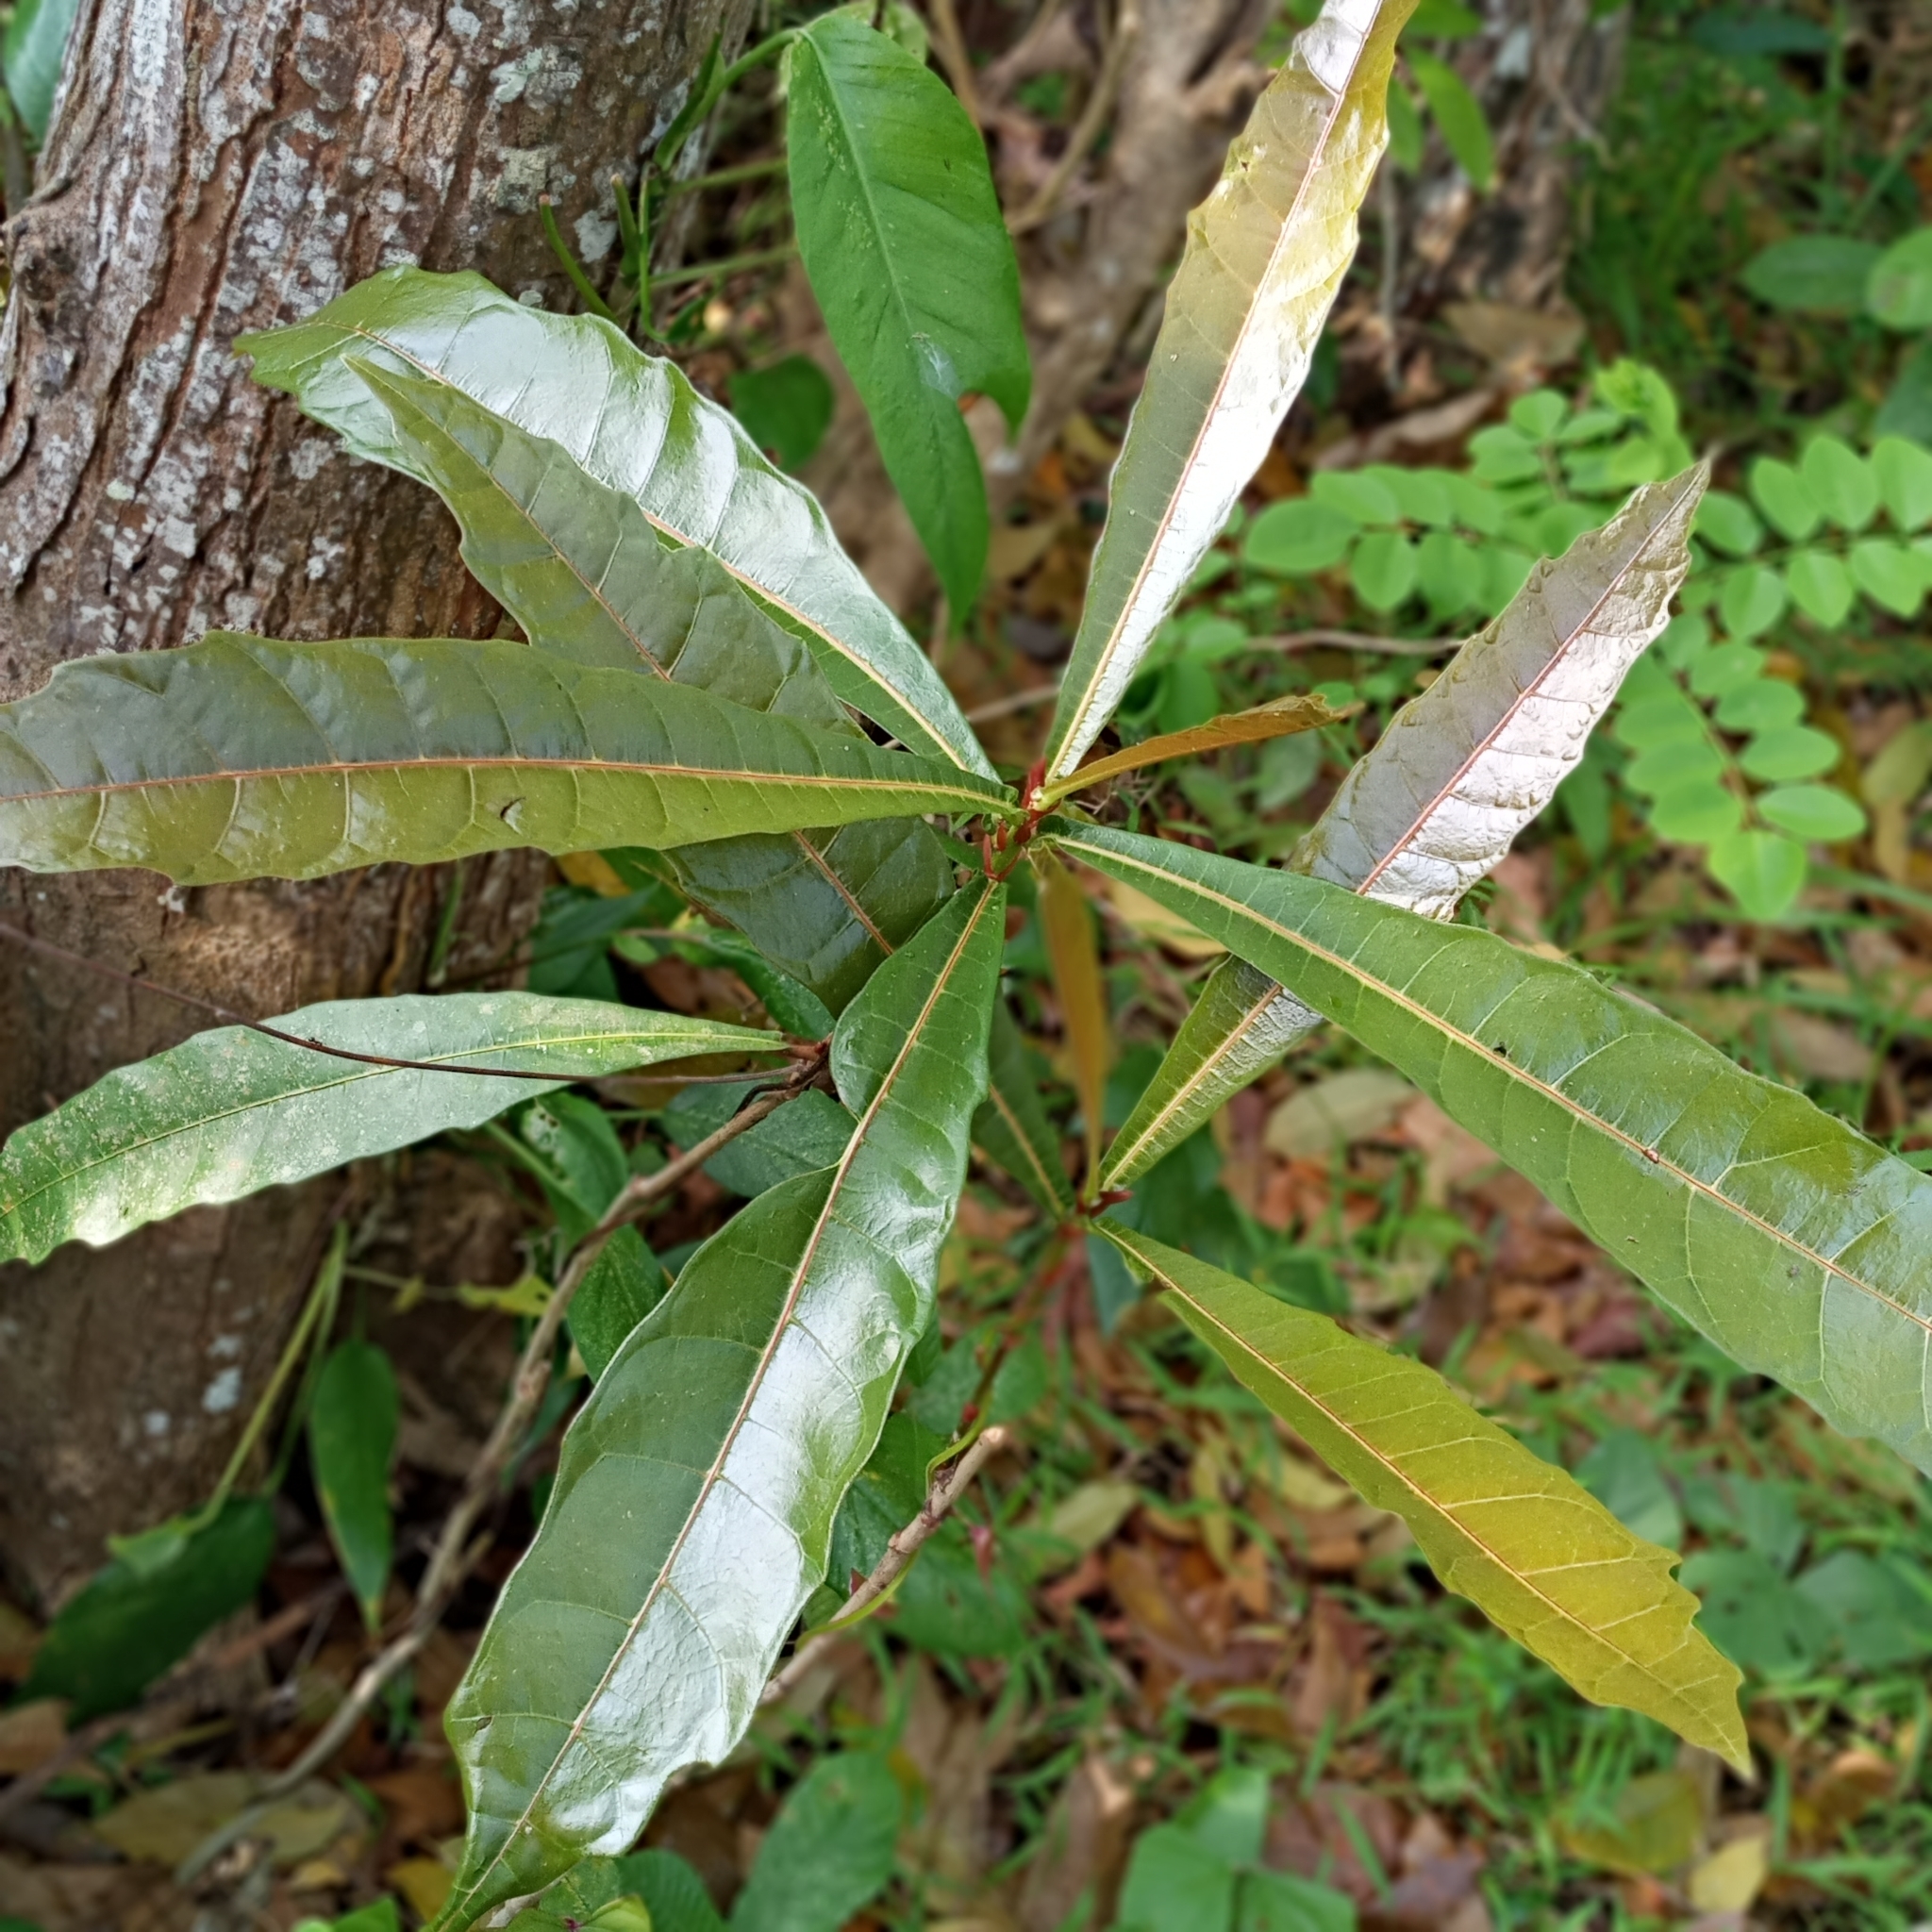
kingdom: Plantae
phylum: Tracheophyta
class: Magnoliopsida
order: Rosales
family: Moraceae
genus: Ficus
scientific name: Ficus pseudopalma
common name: Palm-like fig
